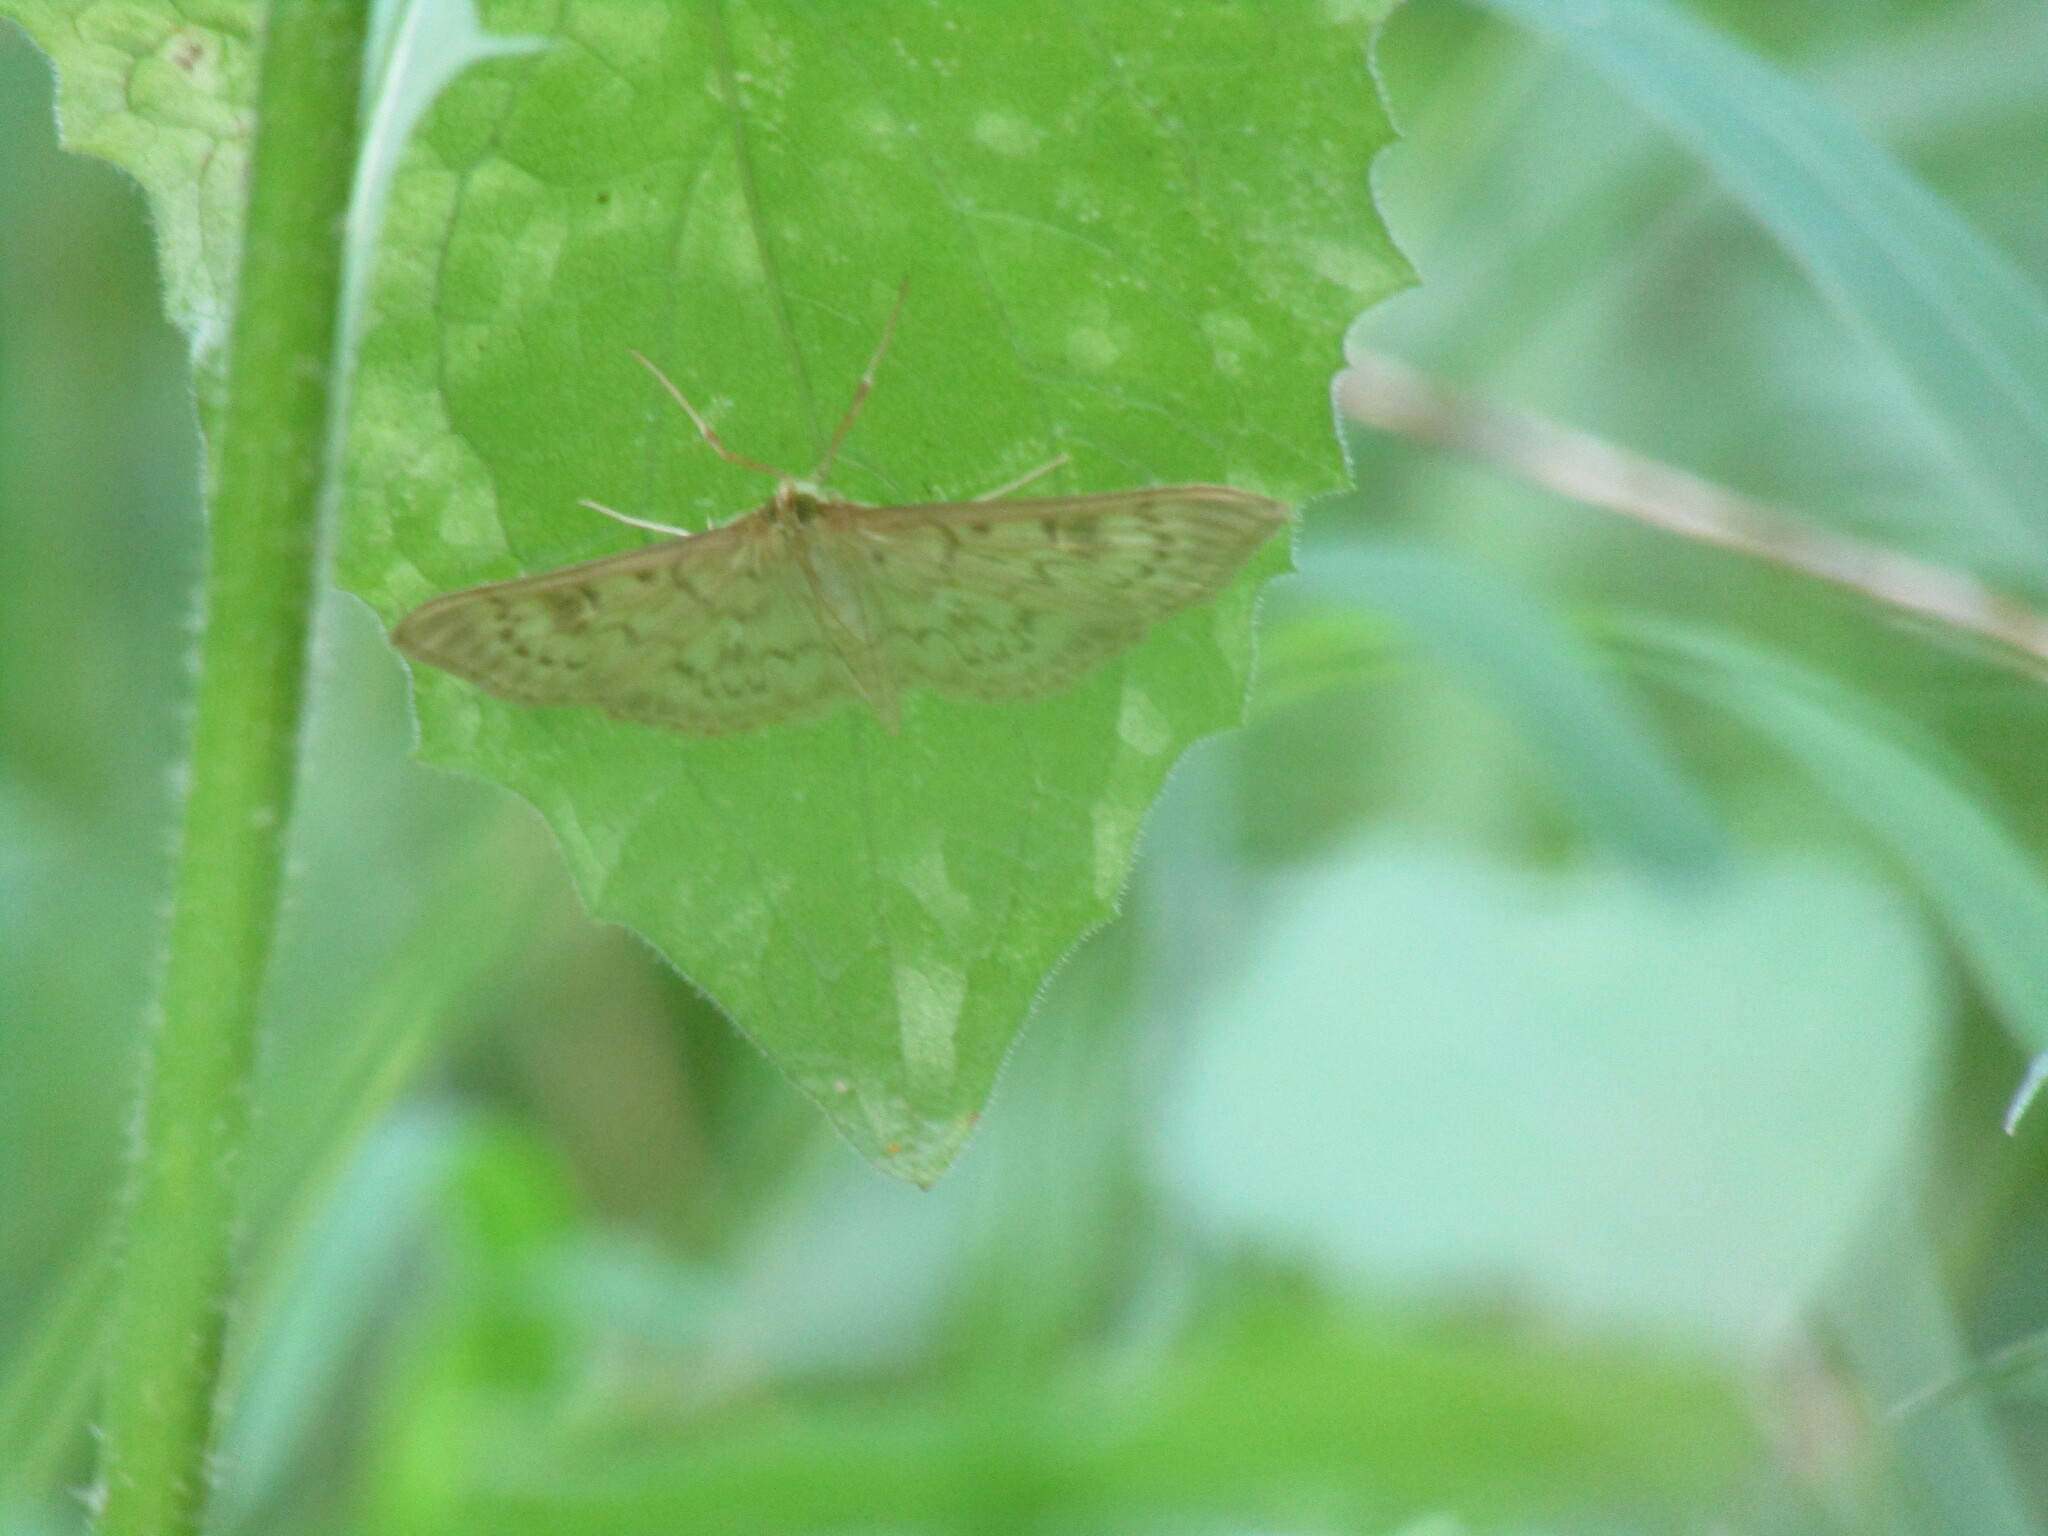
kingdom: Animalia
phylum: Arthropoda
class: Insecta
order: Lepidoptera
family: Crambidae
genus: Patania
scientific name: Patania ruralis
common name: Mother of pearl
